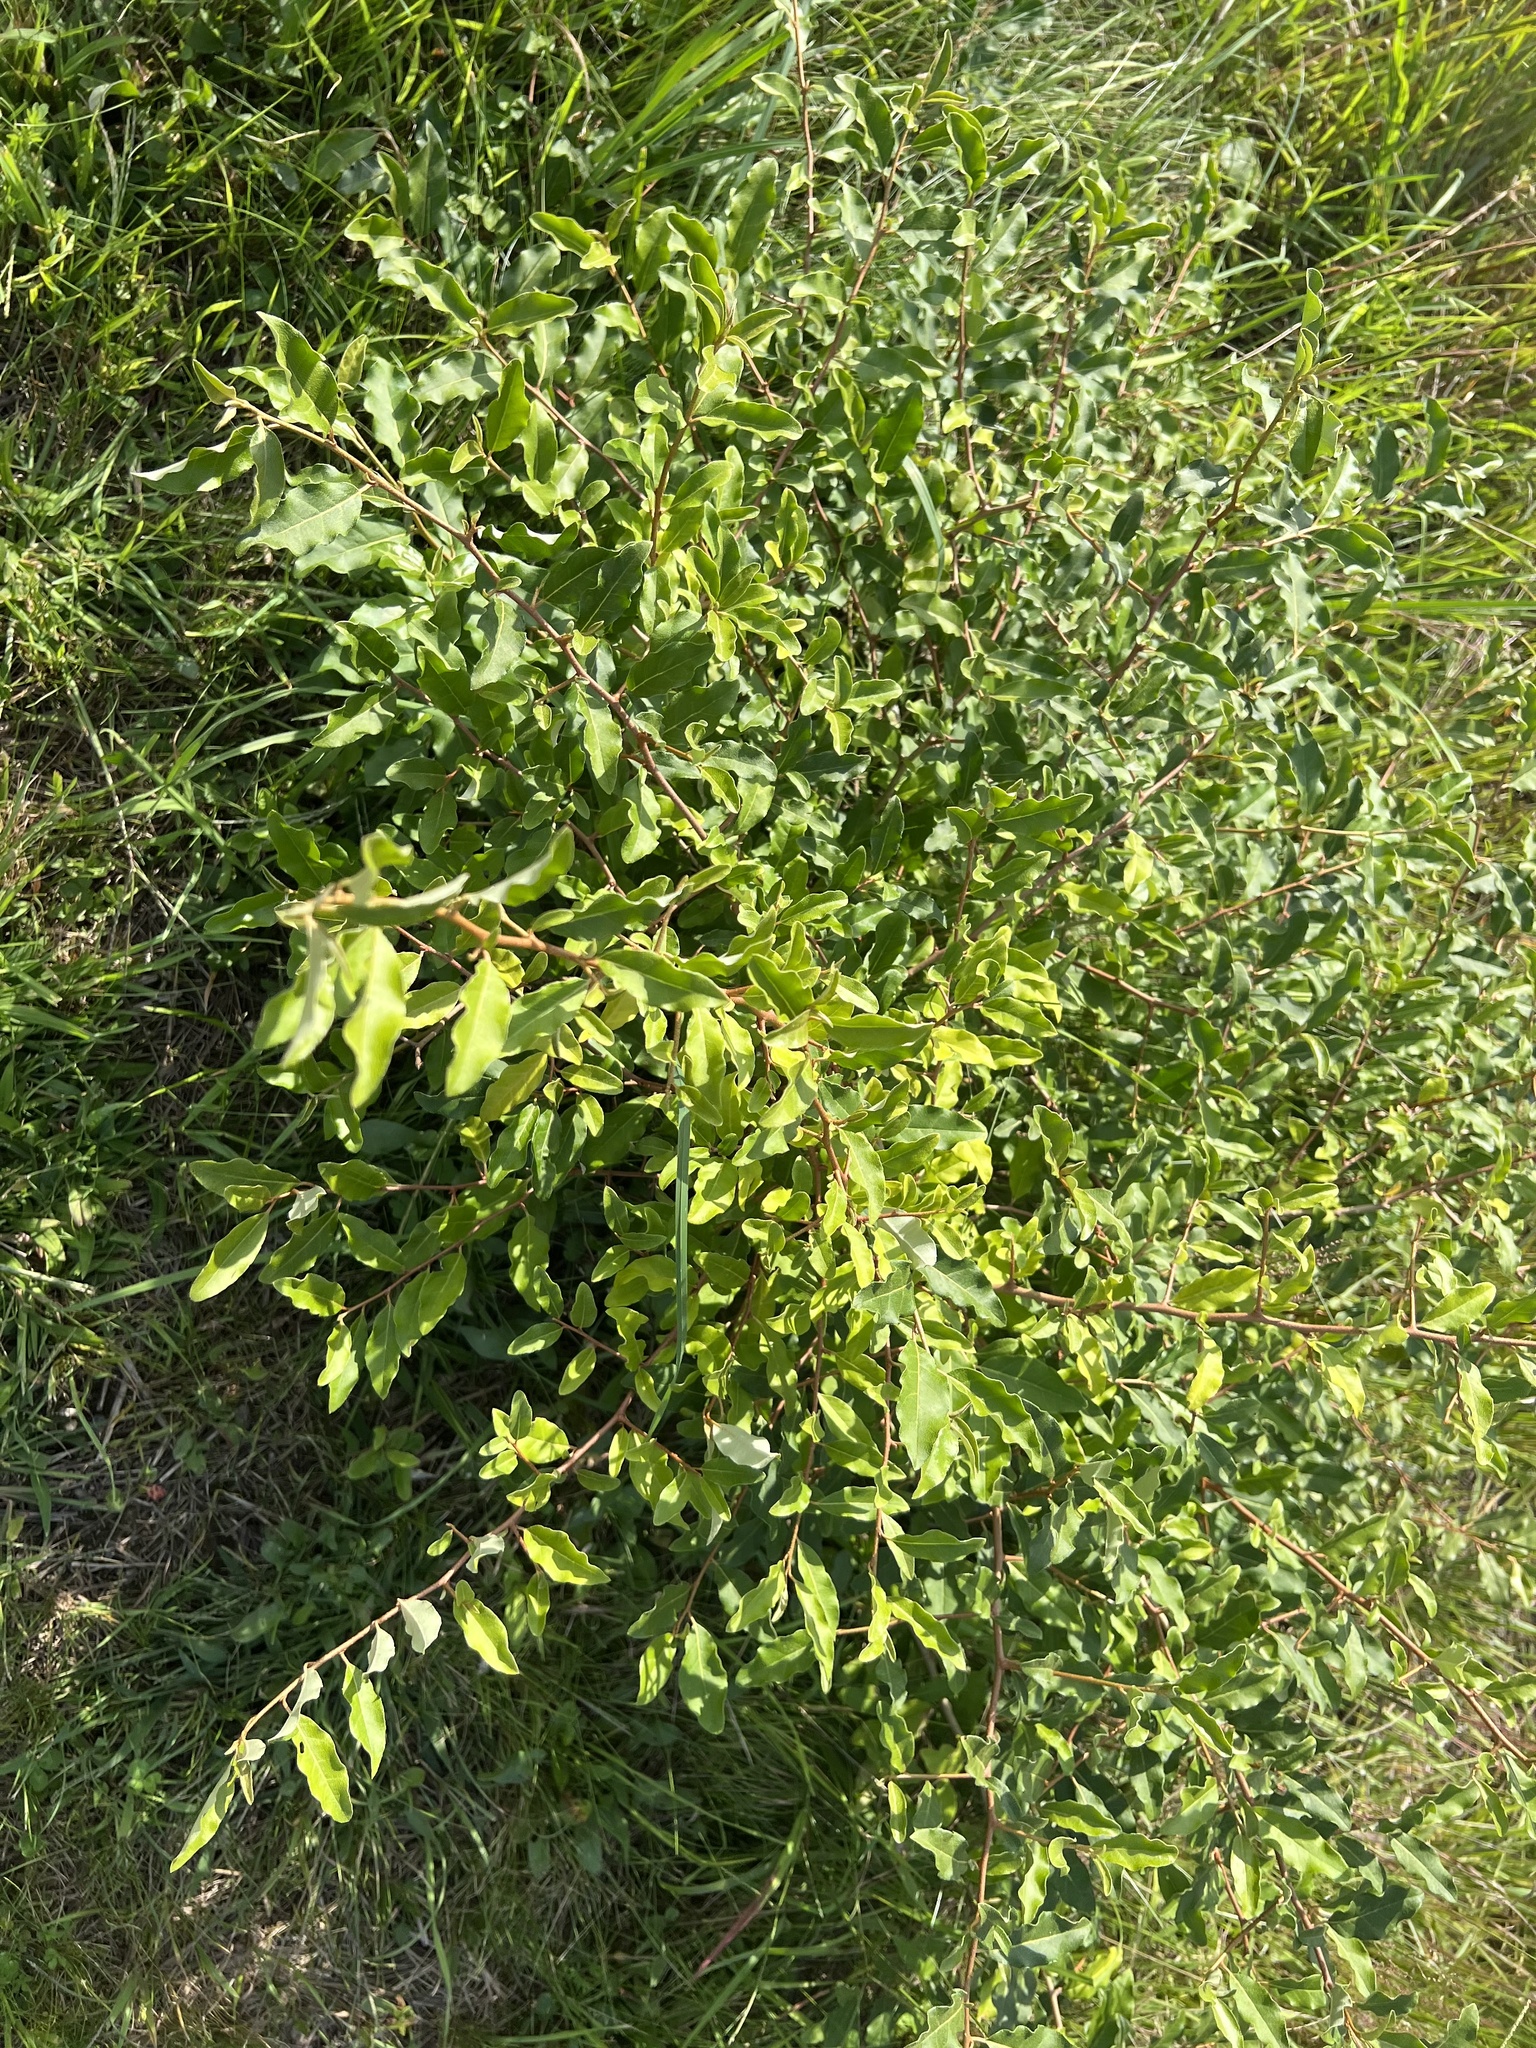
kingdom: Plantae
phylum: Tracheophyta
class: Magnoliopsida
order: Rosales
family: Elaeagnaceae
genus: Elaeagnus
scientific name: Elaeagnus umbellata
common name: Autumn olive
